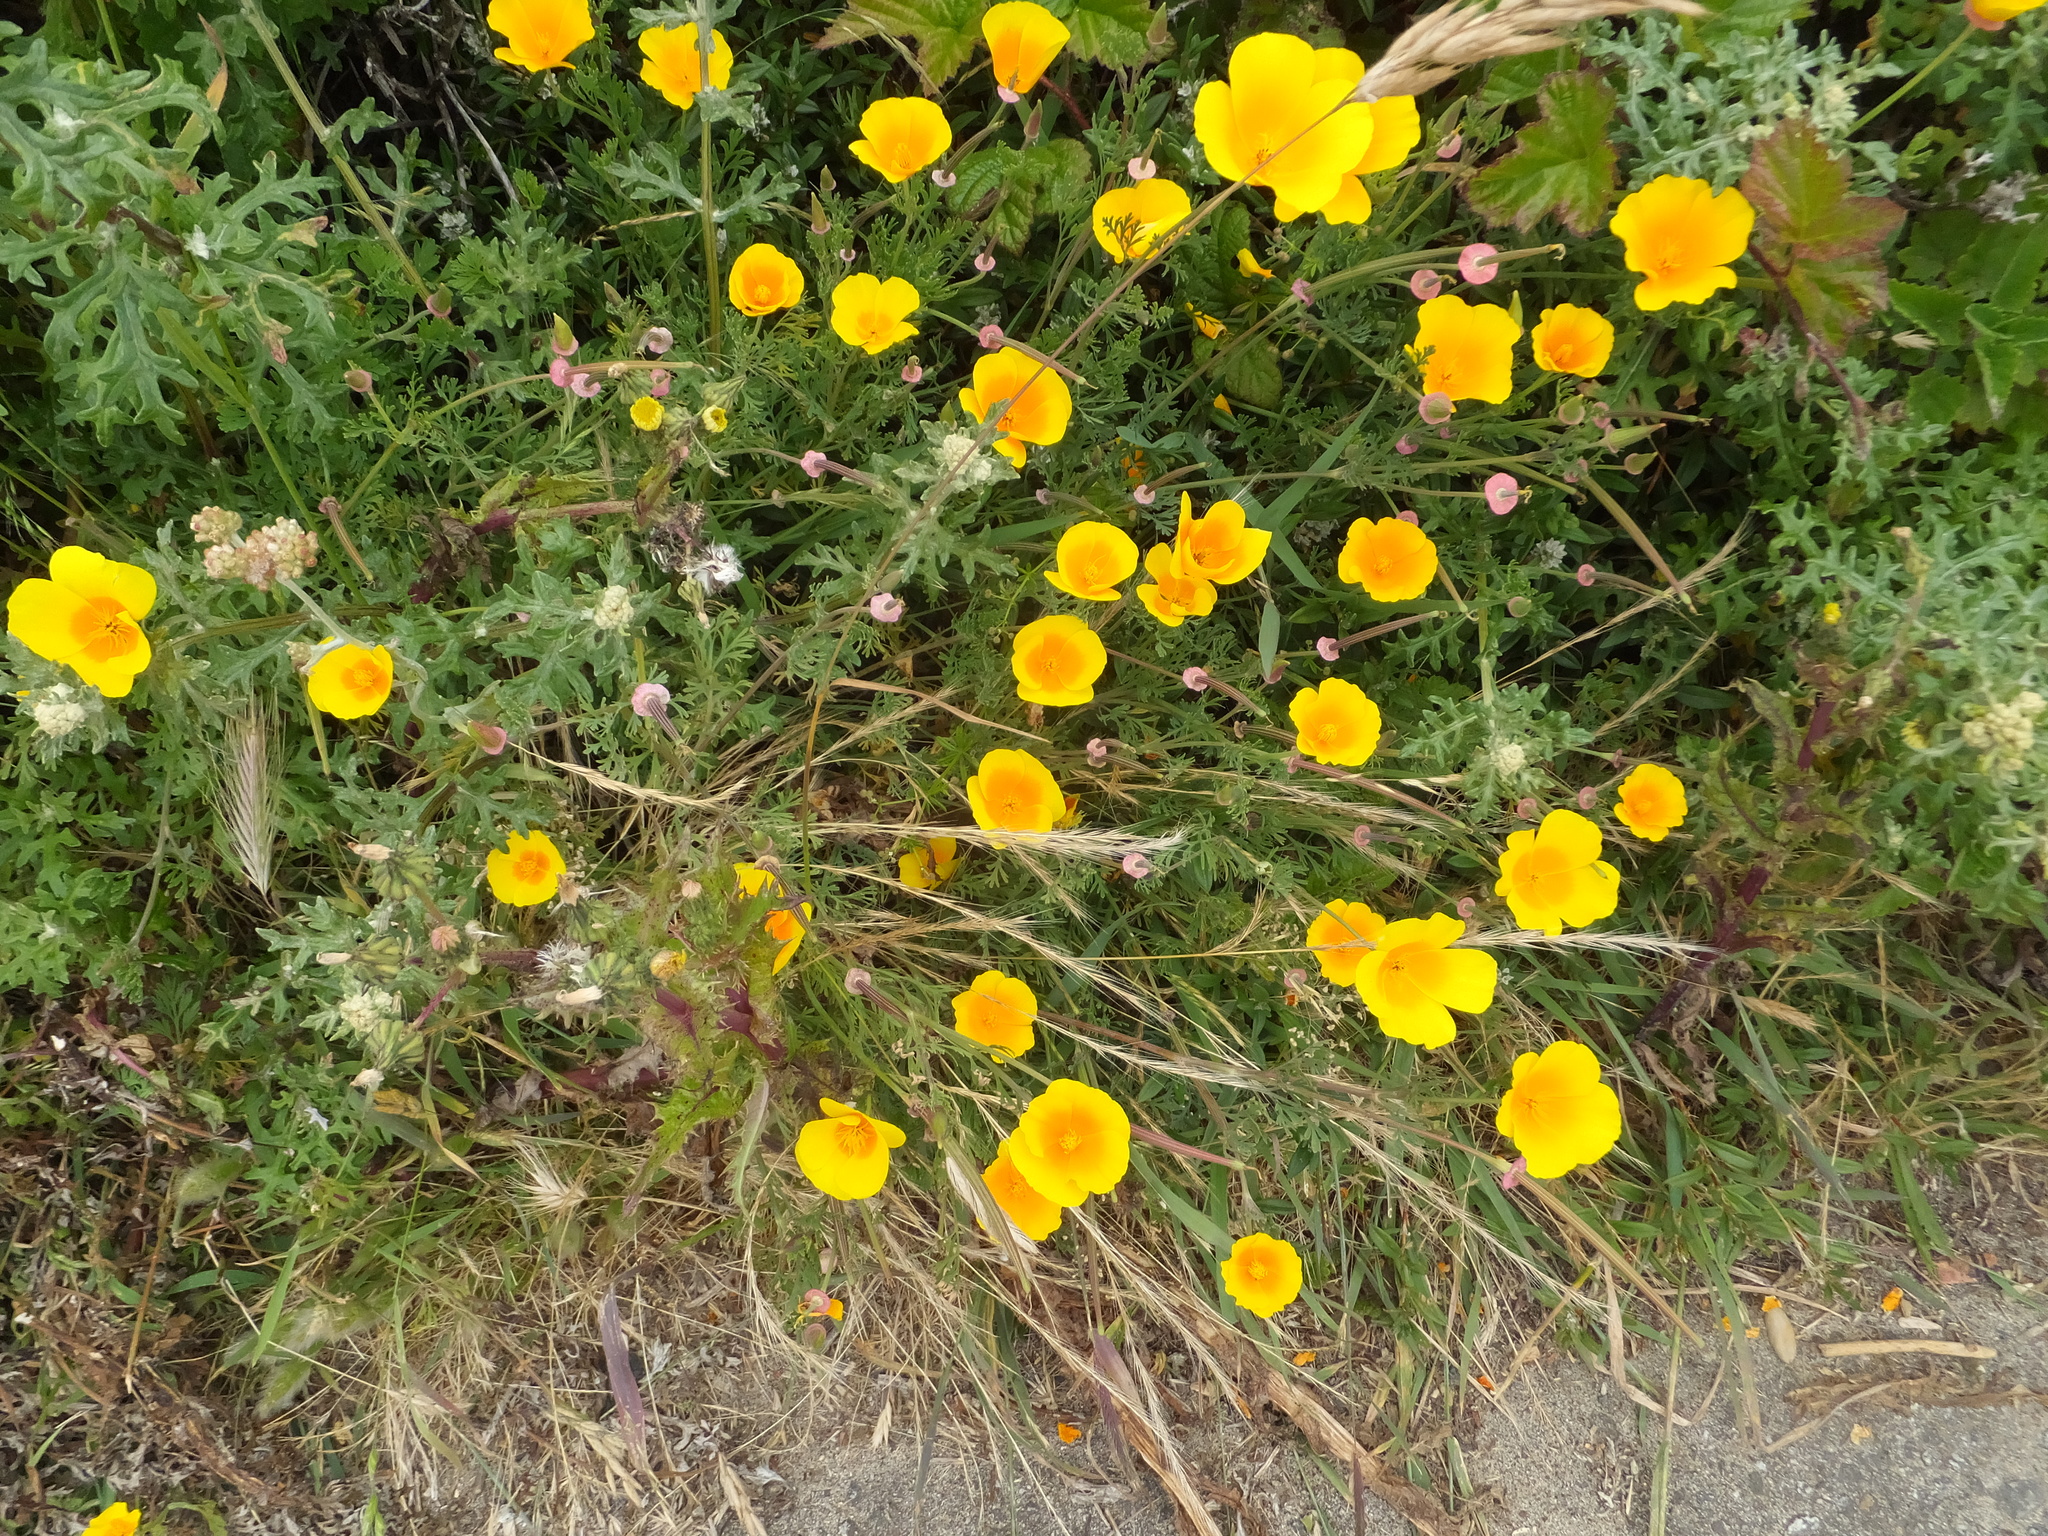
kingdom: Plantae
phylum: Tracheophyta
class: Magnoliopsida
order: Ranunculales
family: Papaveraceae
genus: Eschscholzia
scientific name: Eschscholzia californica
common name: California poppy
